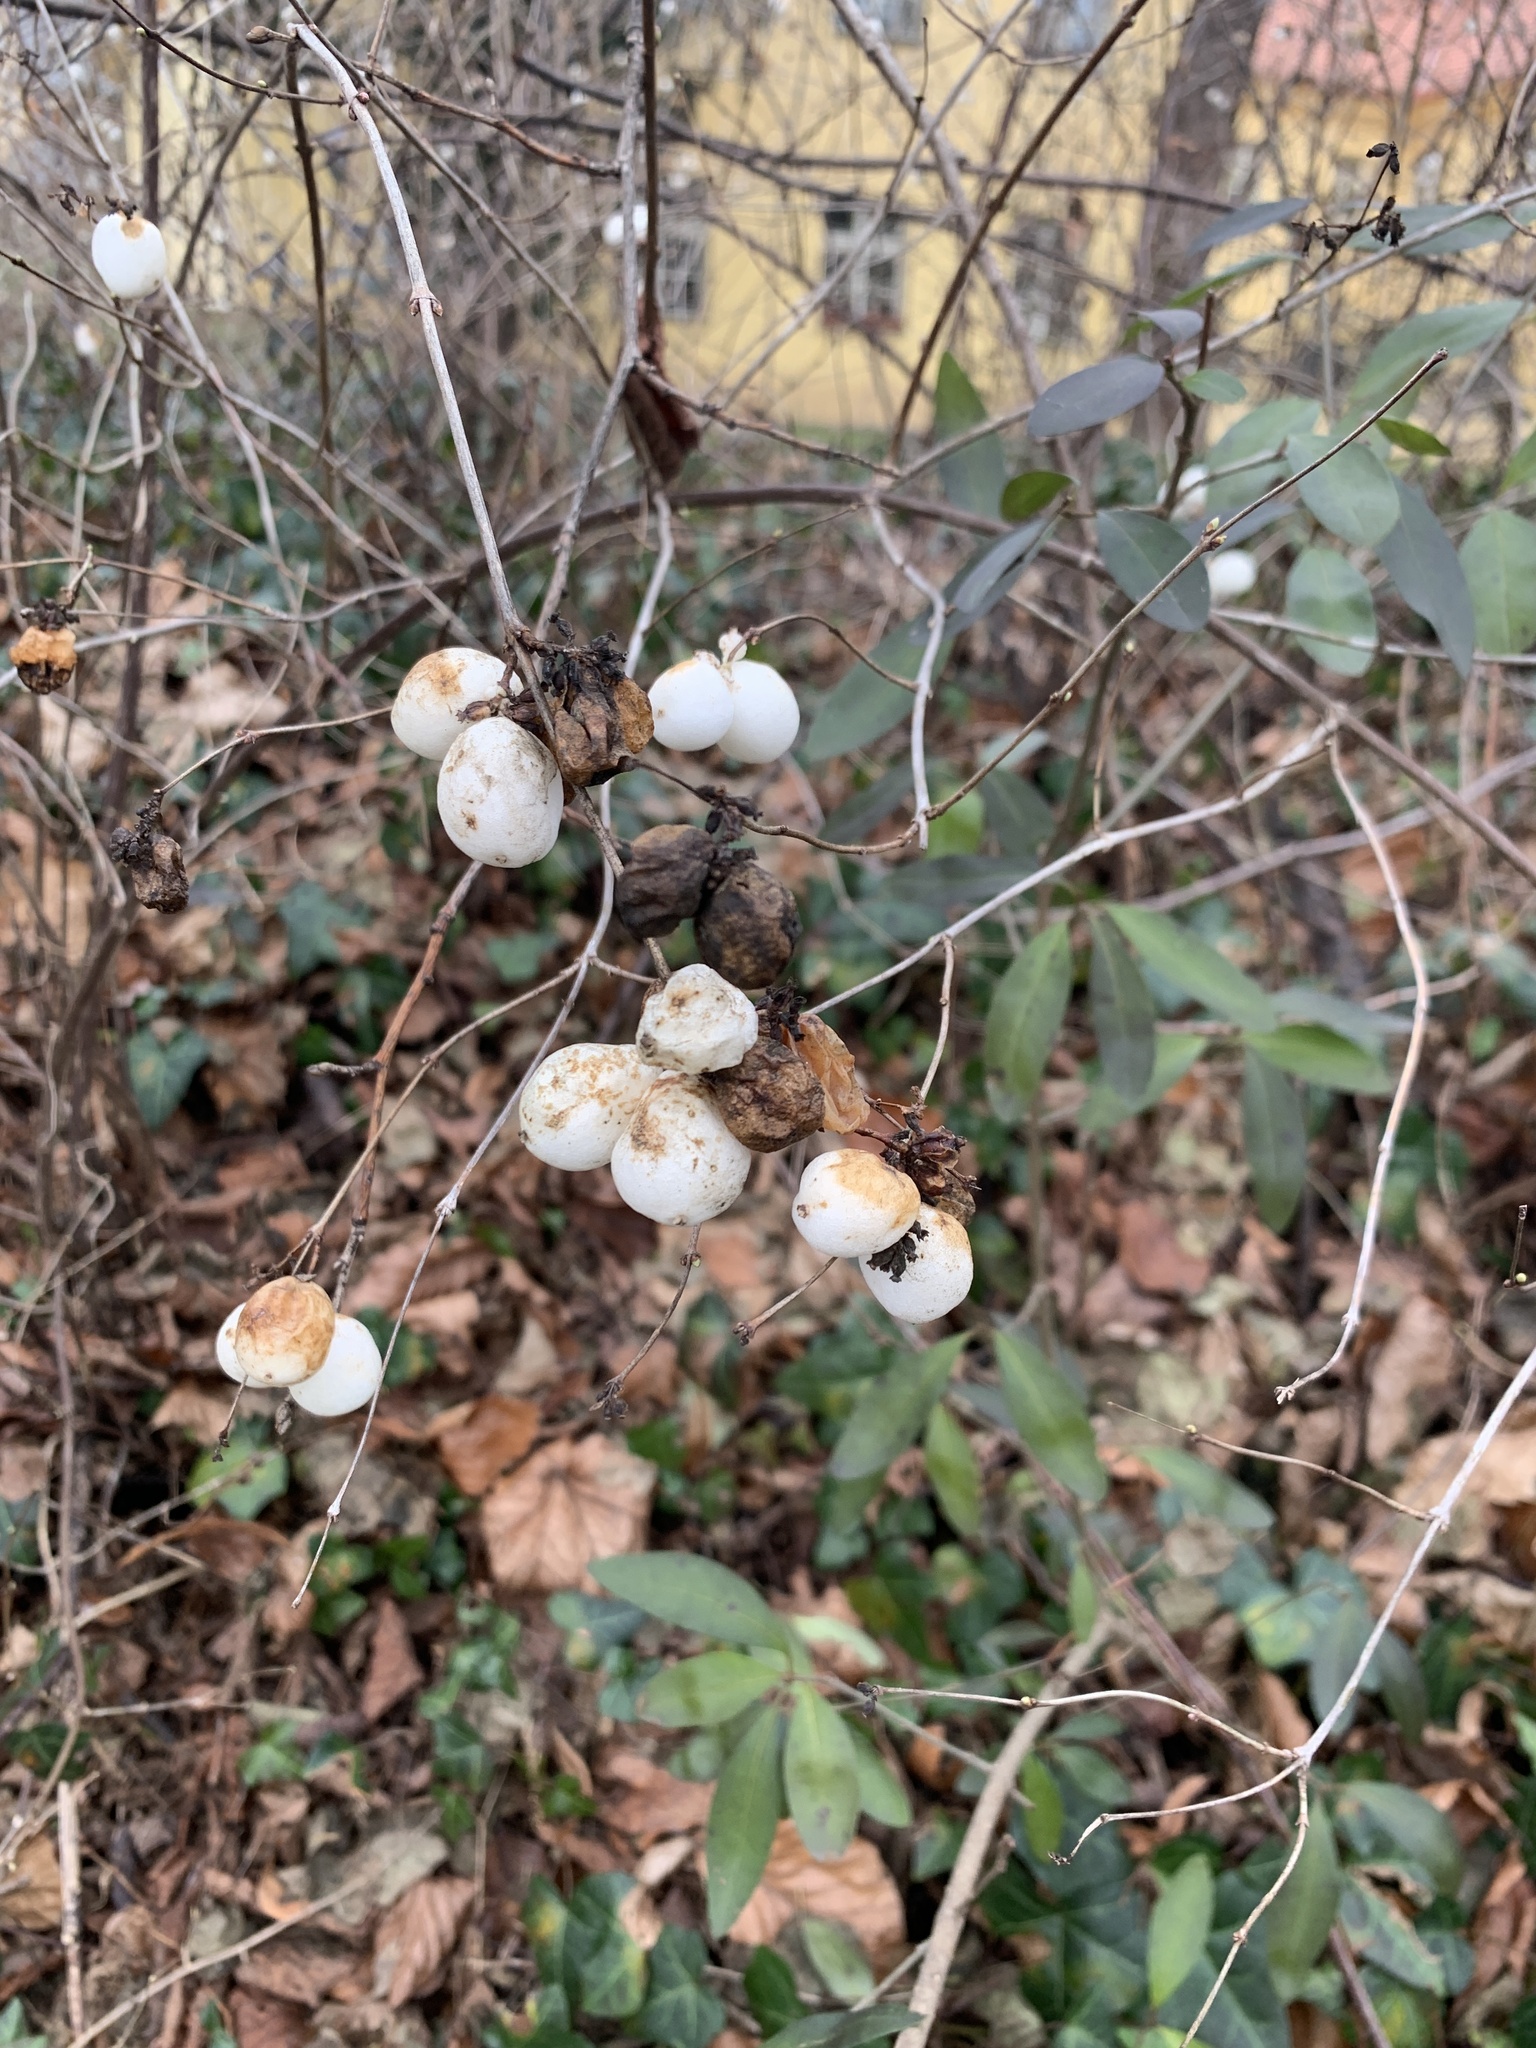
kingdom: Plantae
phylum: Tracheophyta
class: Magnoliopsida
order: Dipsacales
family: Caprifoliaceae
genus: Symphoricarpos
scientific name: Symphoricarpos albus
